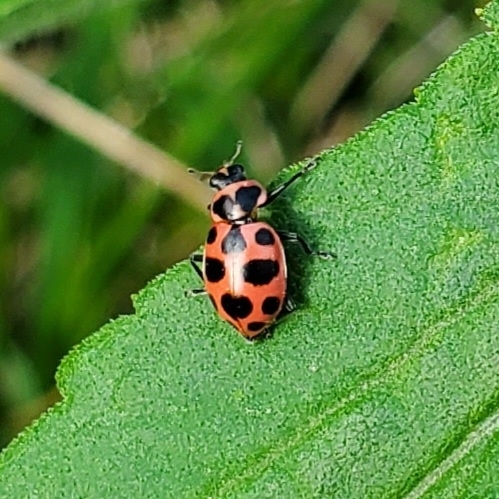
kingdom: Animalia
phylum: Arthropoda
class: Insecta
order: Coleoptera
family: Coccinellidae
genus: Coleomegilla
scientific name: Coleomegilla maculata
